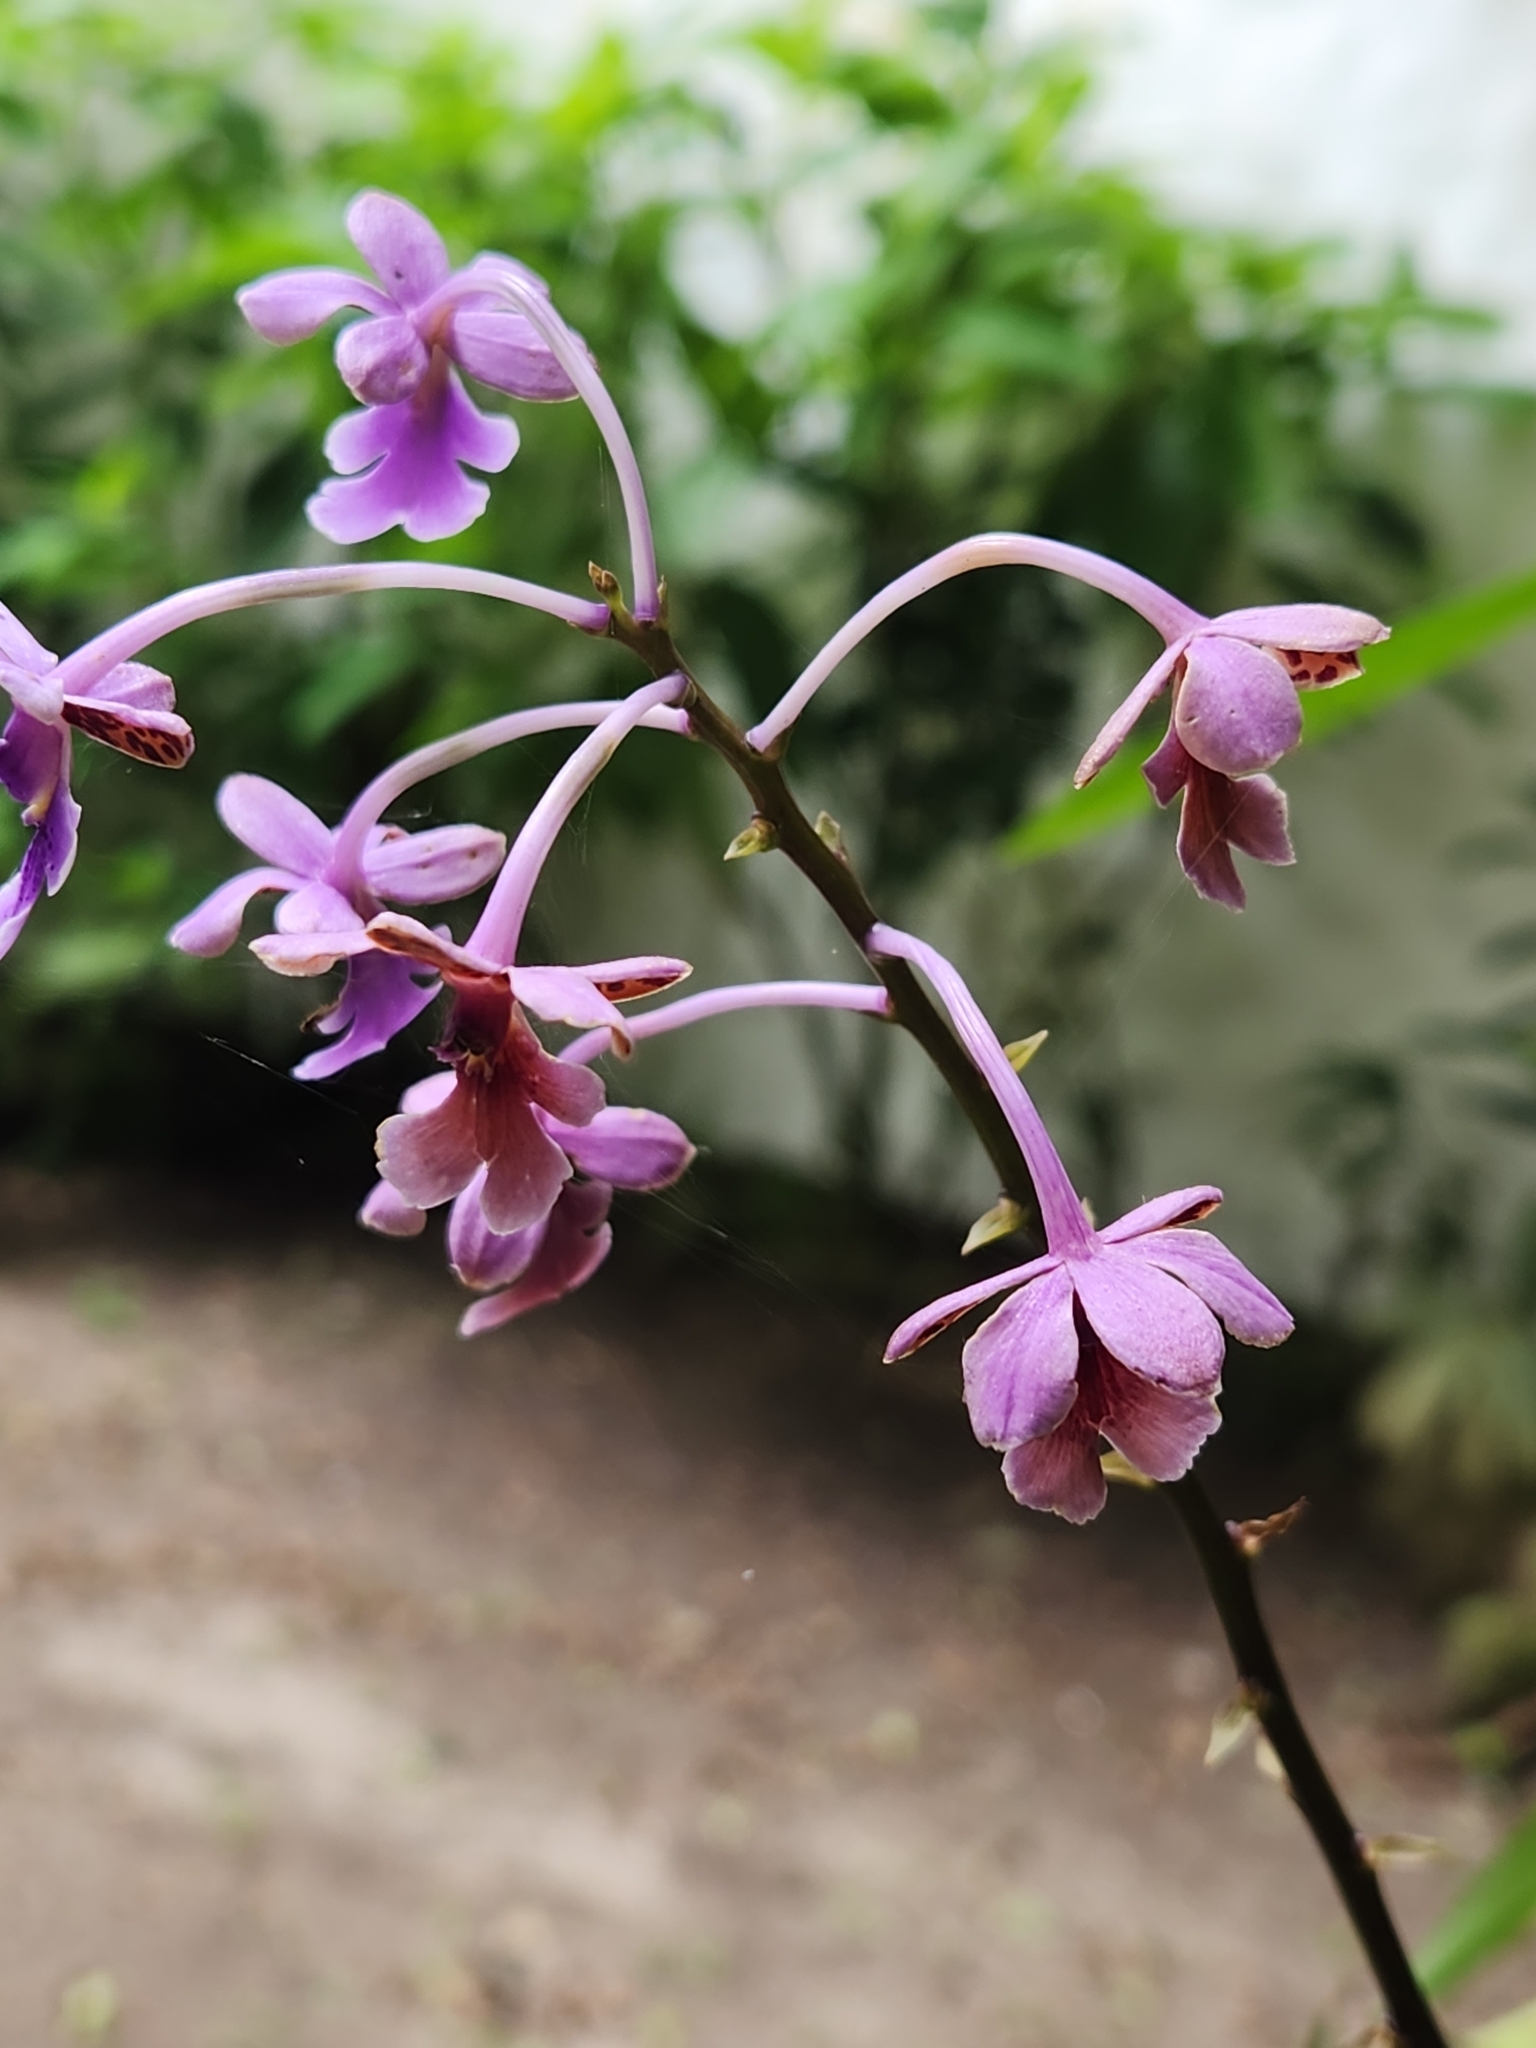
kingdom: Plantae
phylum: Tracheophyta
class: Liliopsida
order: Asparagales
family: Orchidaceae
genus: Epidendrum
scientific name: Epidendrum pseudoschumannianum
